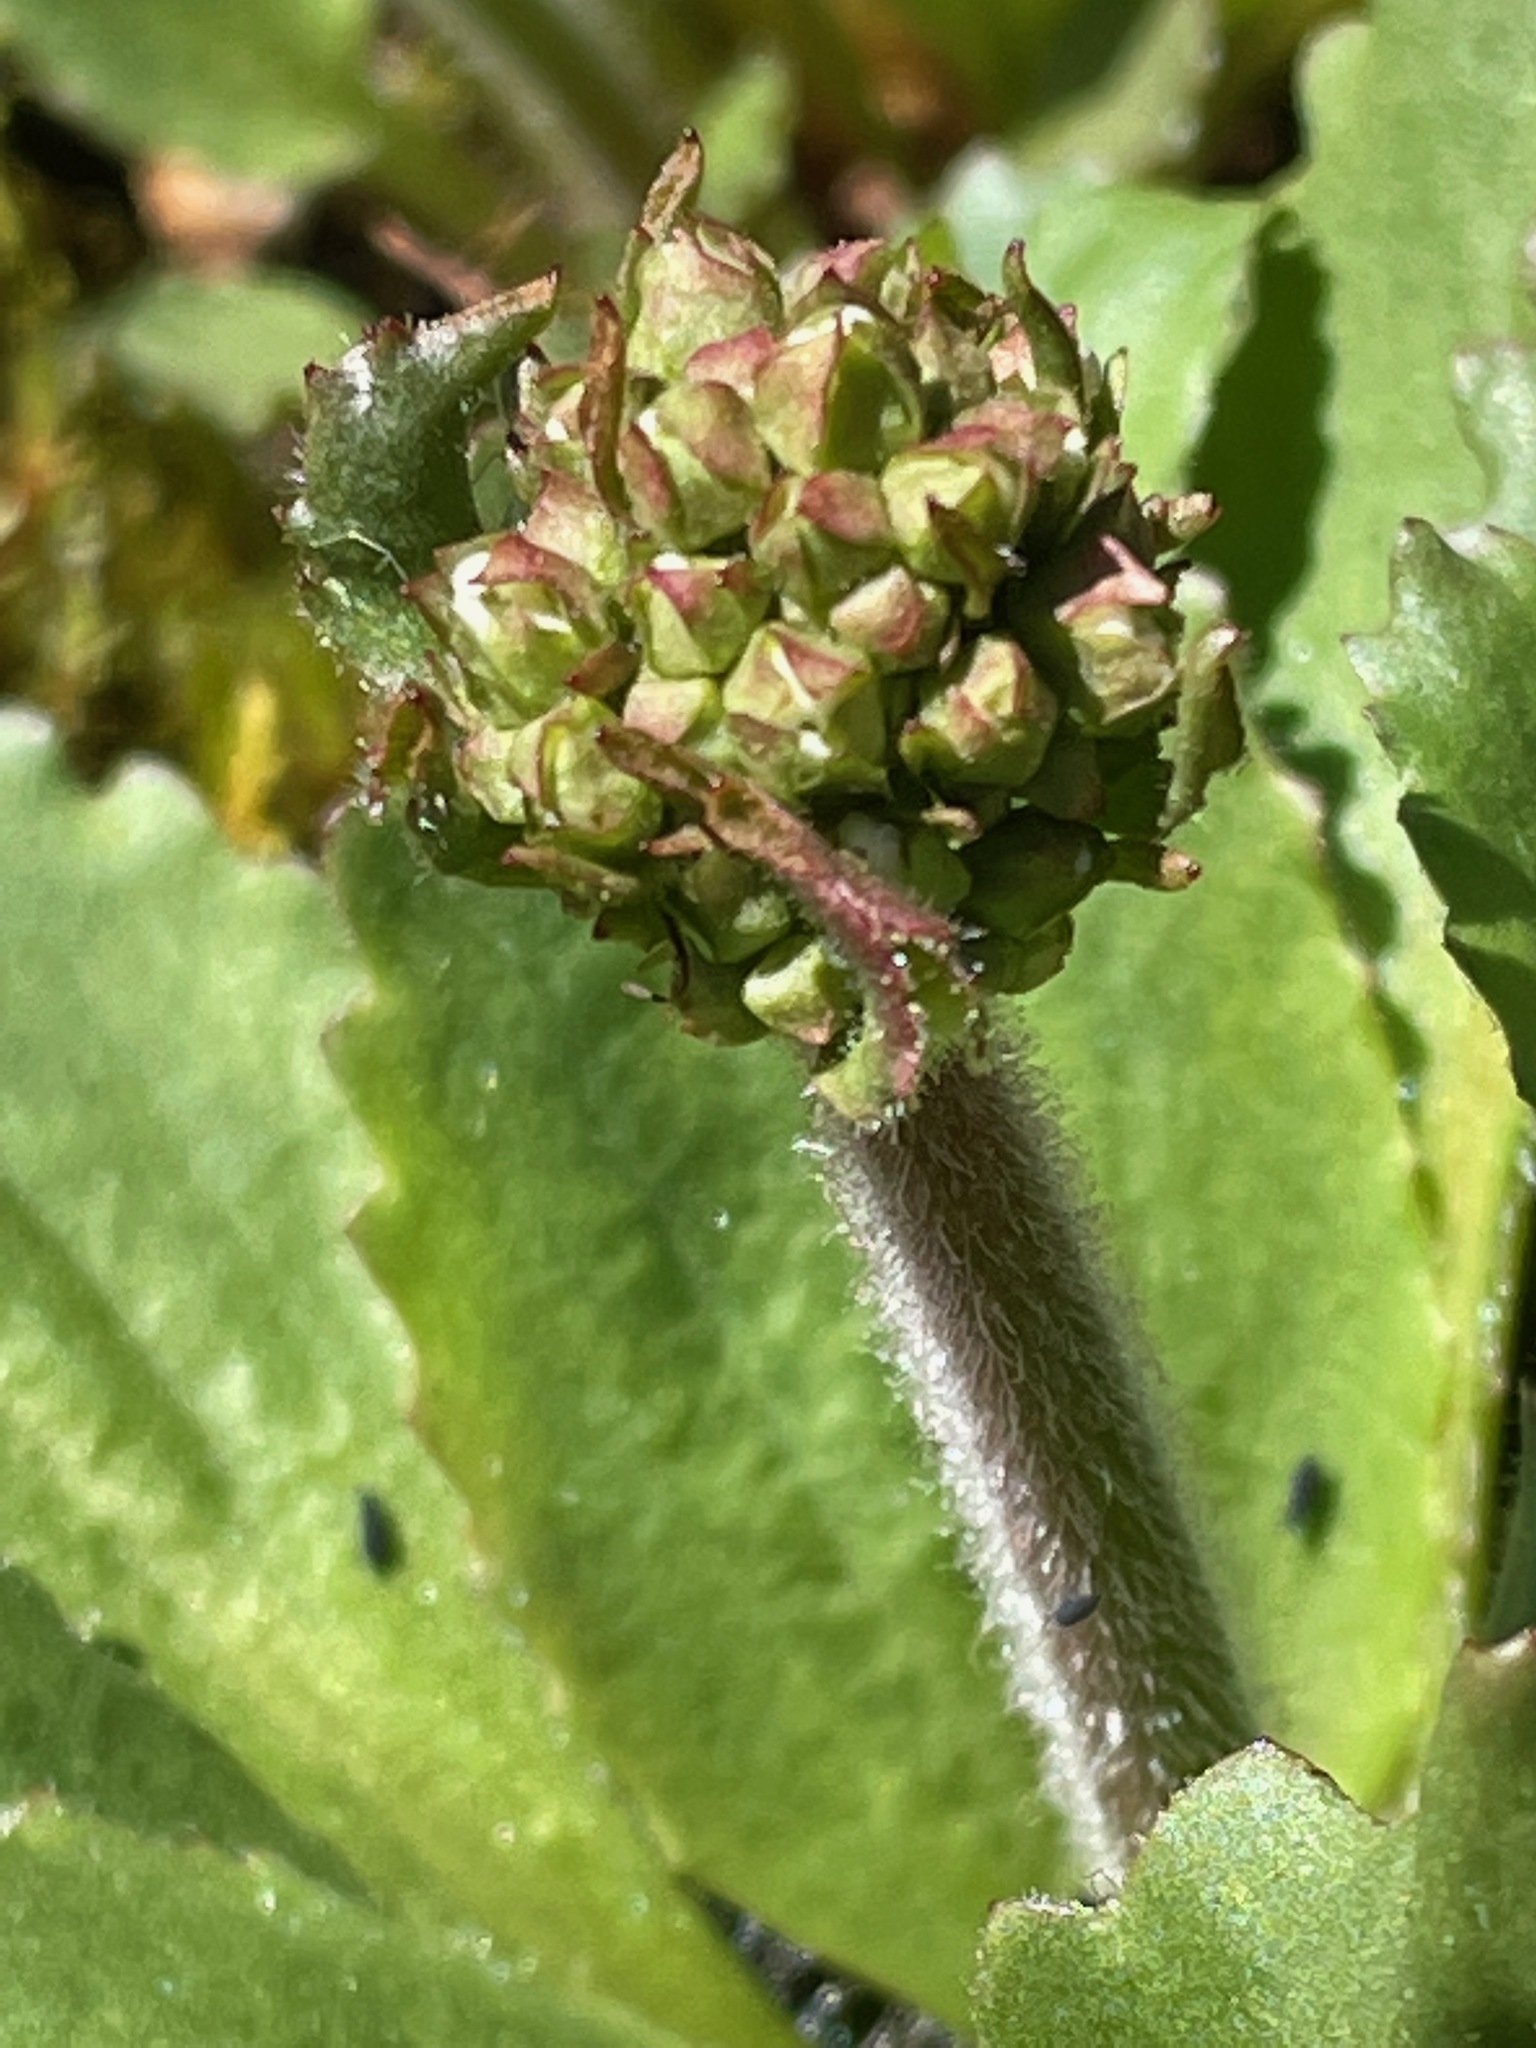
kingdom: Plantae
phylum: Tracheophyta
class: Magnoliopsida
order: Saxifragales
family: Saxifragaceae
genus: Micranthes
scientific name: Micranthes virginiensis
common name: Early saxifrage
